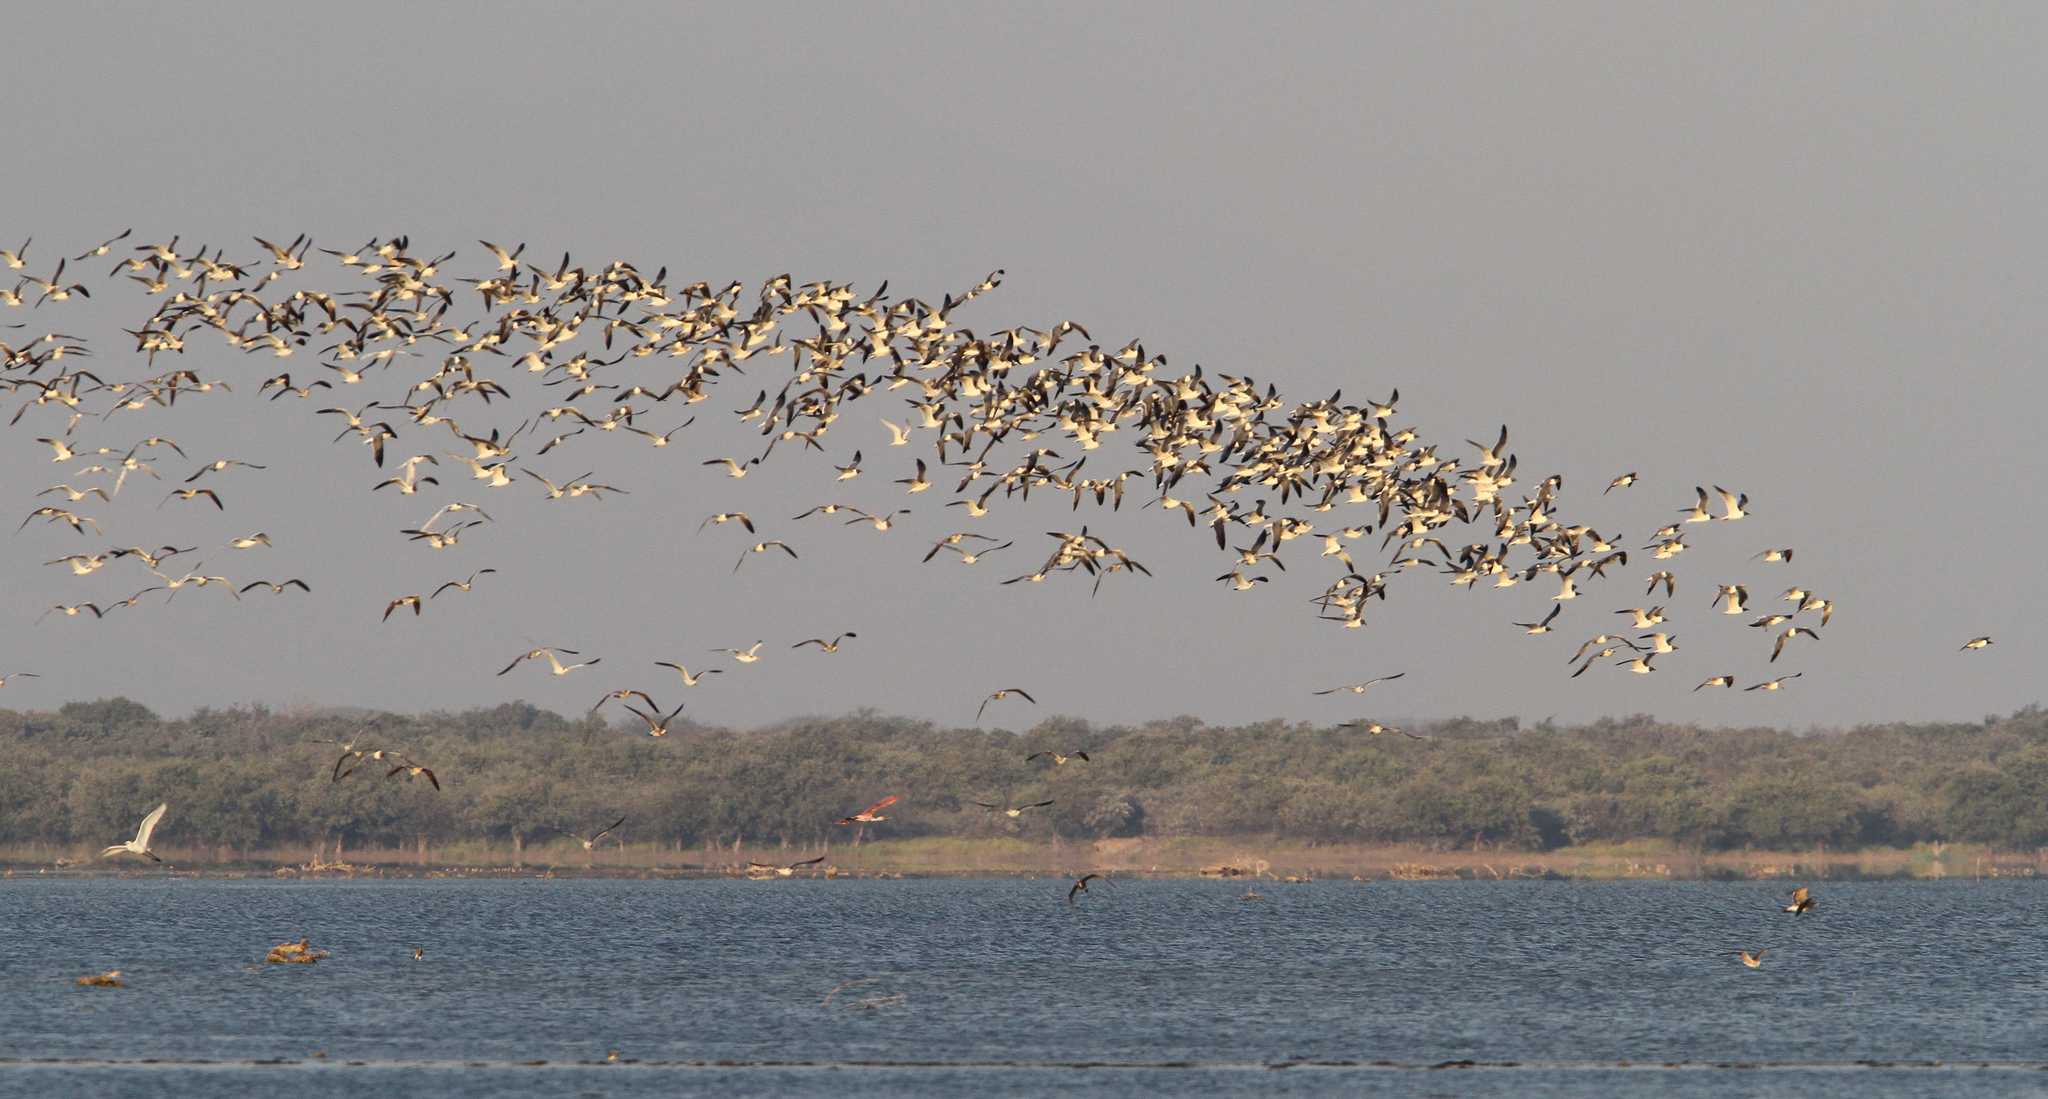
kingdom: Animalia
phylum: Chordata
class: Aves
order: Charadriiformes
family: Laridae
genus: Leucophaeus
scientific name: Leucophaeus atricilla
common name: Laughing gull
